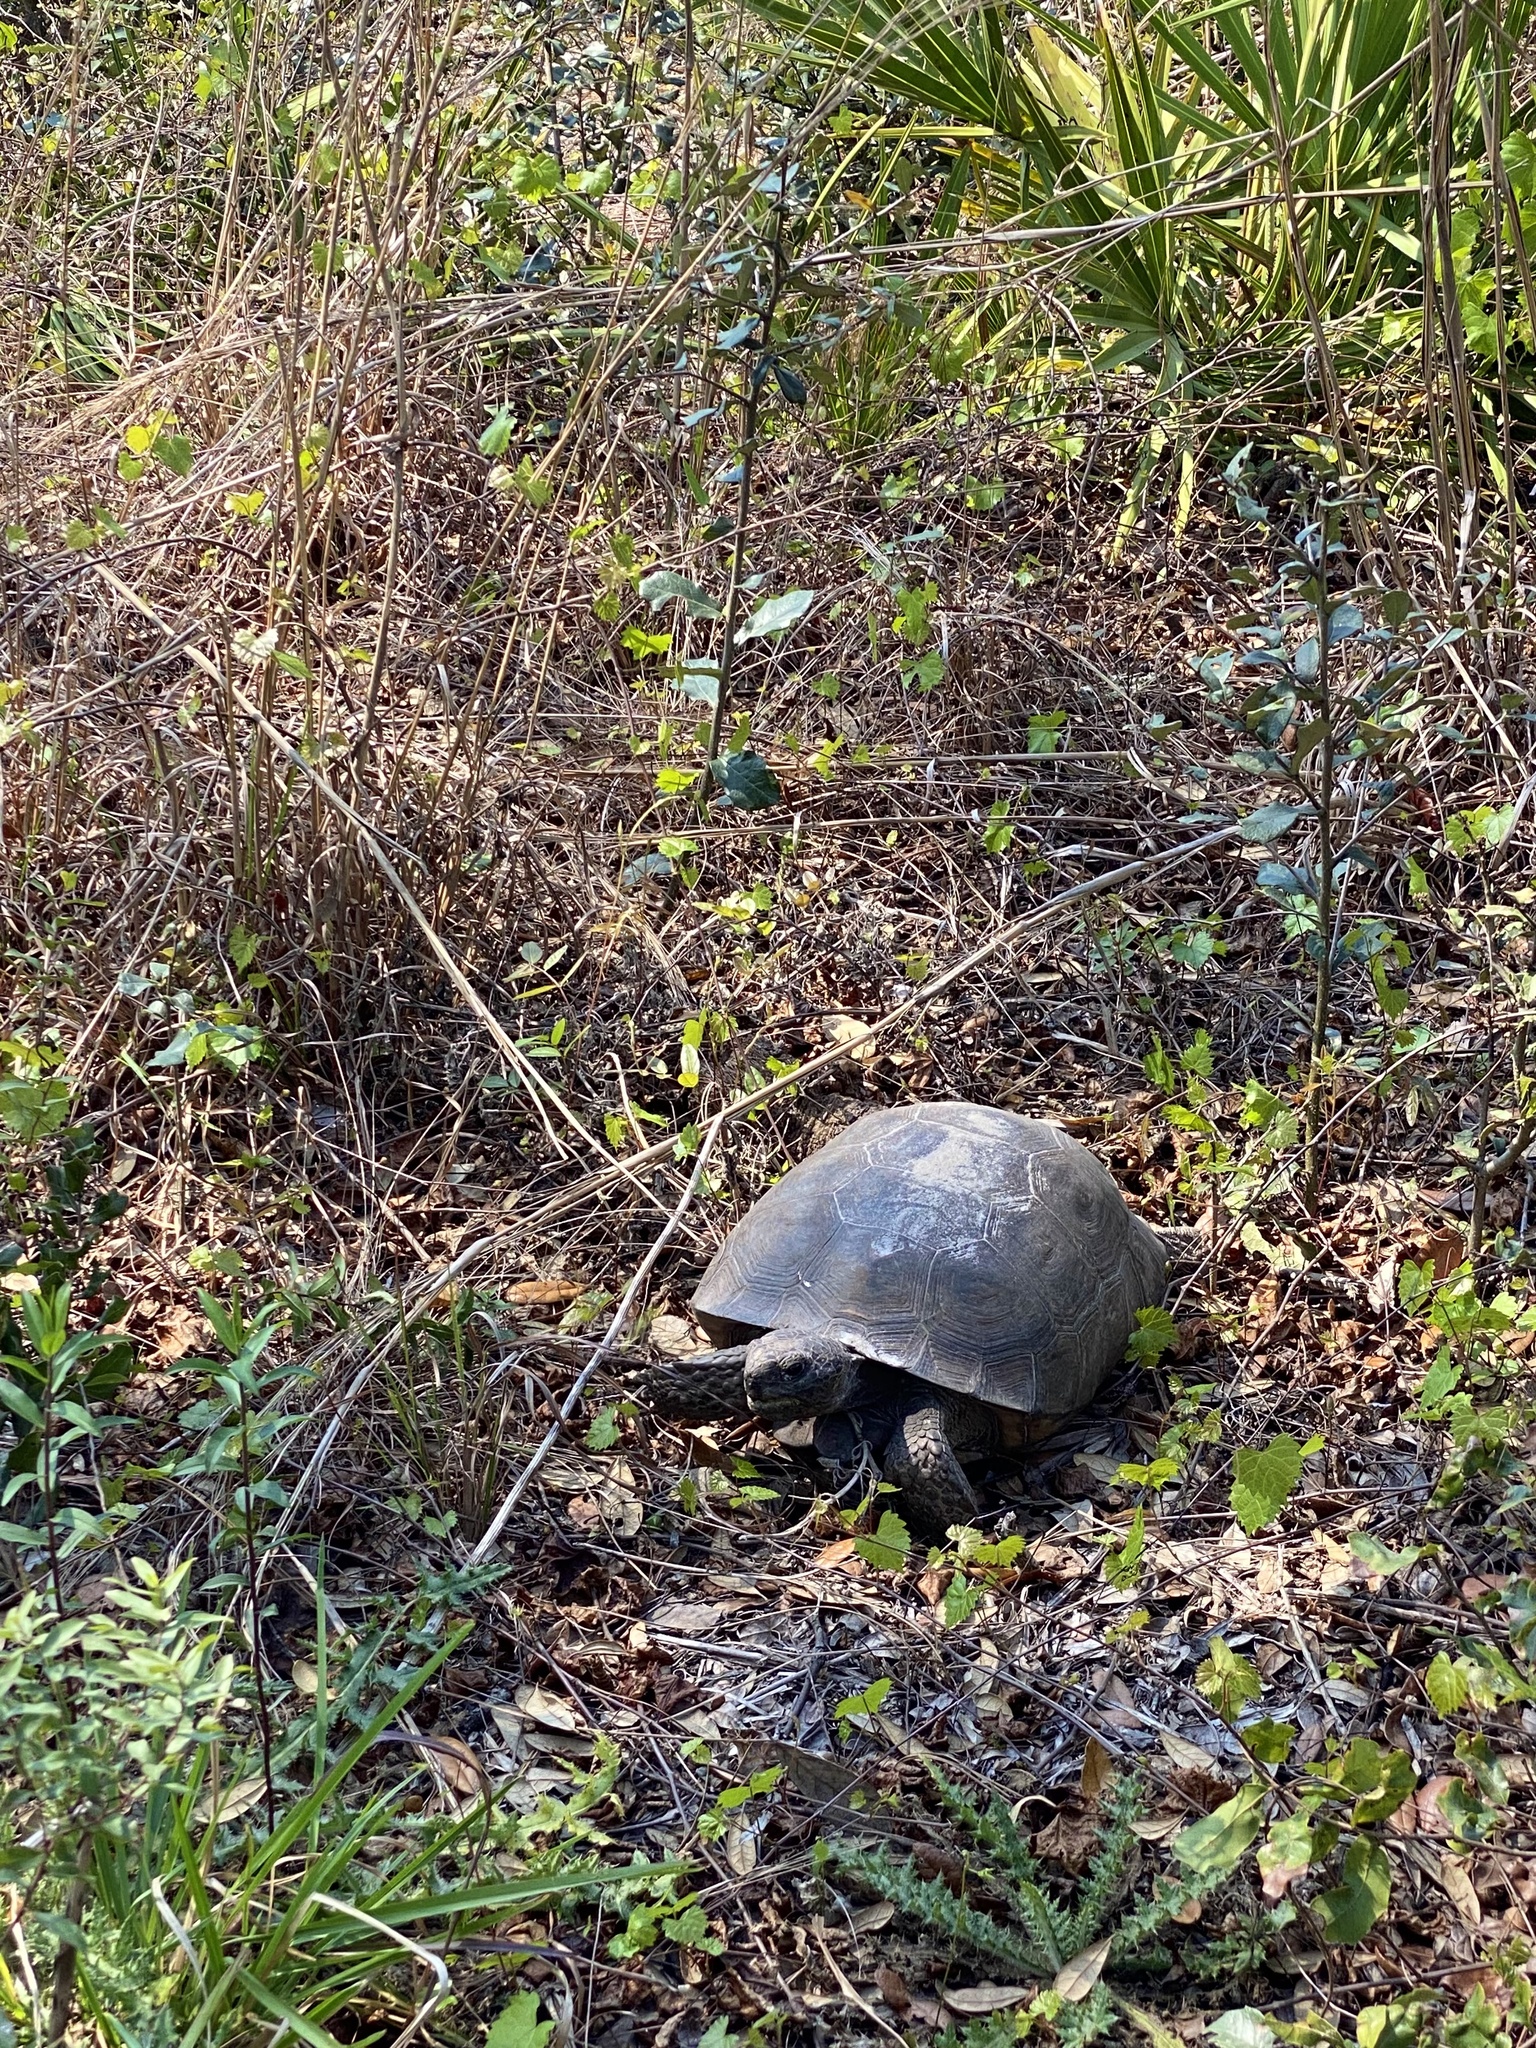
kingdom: Animalia
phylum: Chordata
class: Testudines
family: Testudinidae
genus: Gopherus
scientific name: Gopherus polyphemus
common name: Florida gopher tortoise
